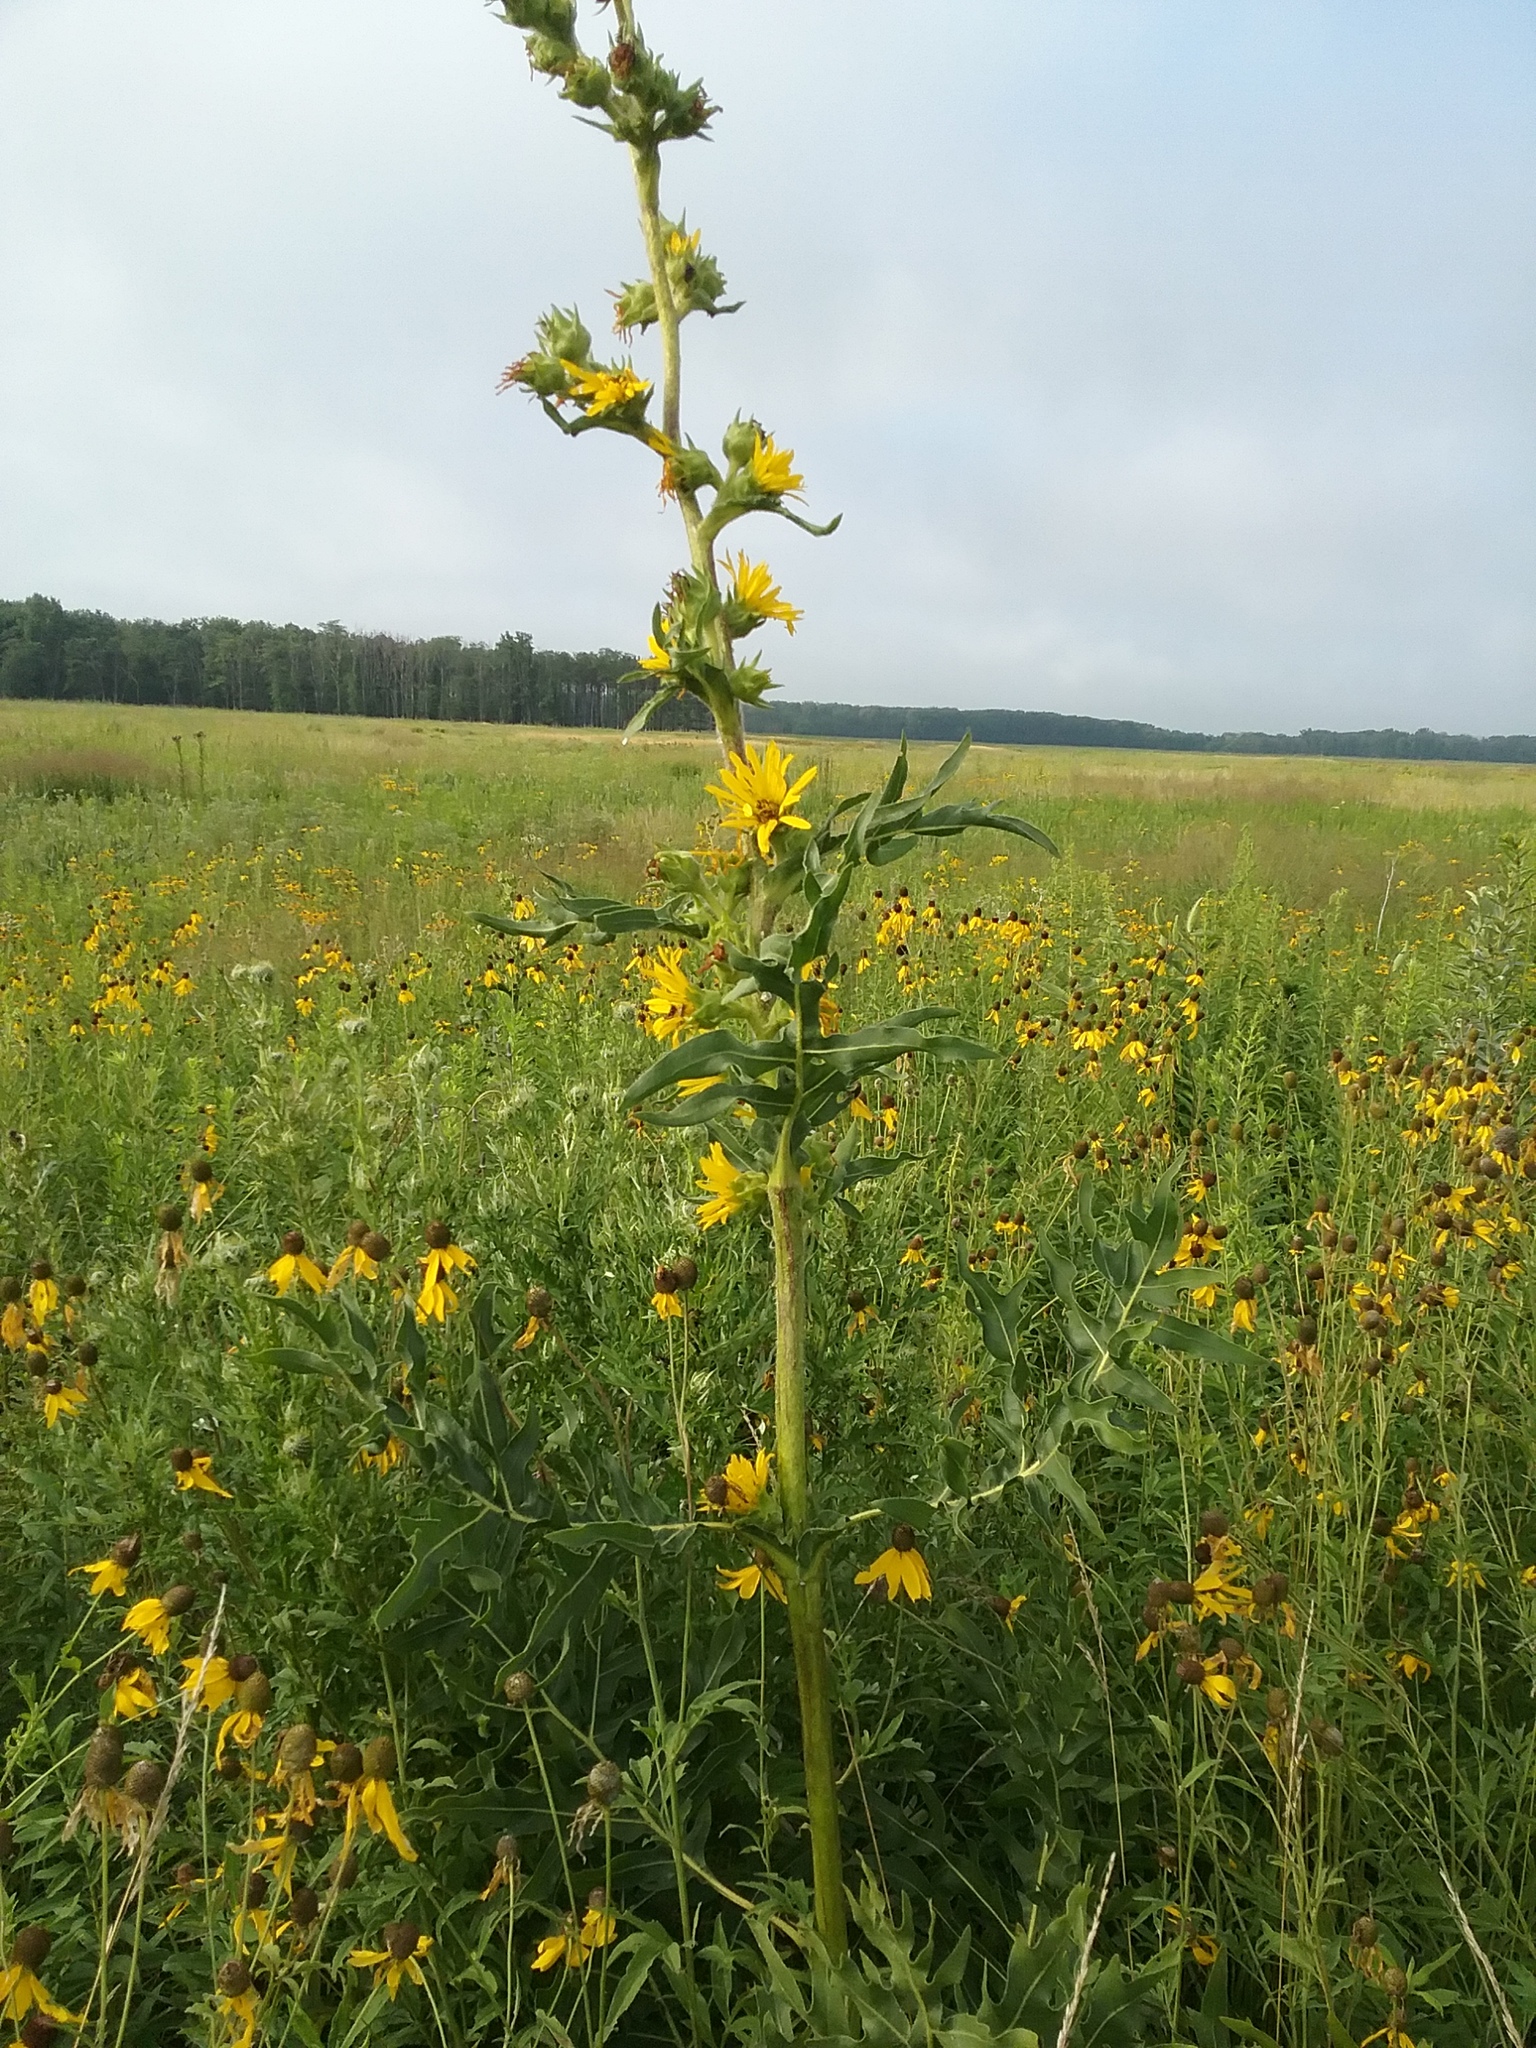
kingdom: Plantae
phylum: Tracheophyta
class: Magnoliopsida
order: Asterales
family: Asteraceae
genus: Silphium
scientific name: Silphium laciniatum
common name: Polarplant
